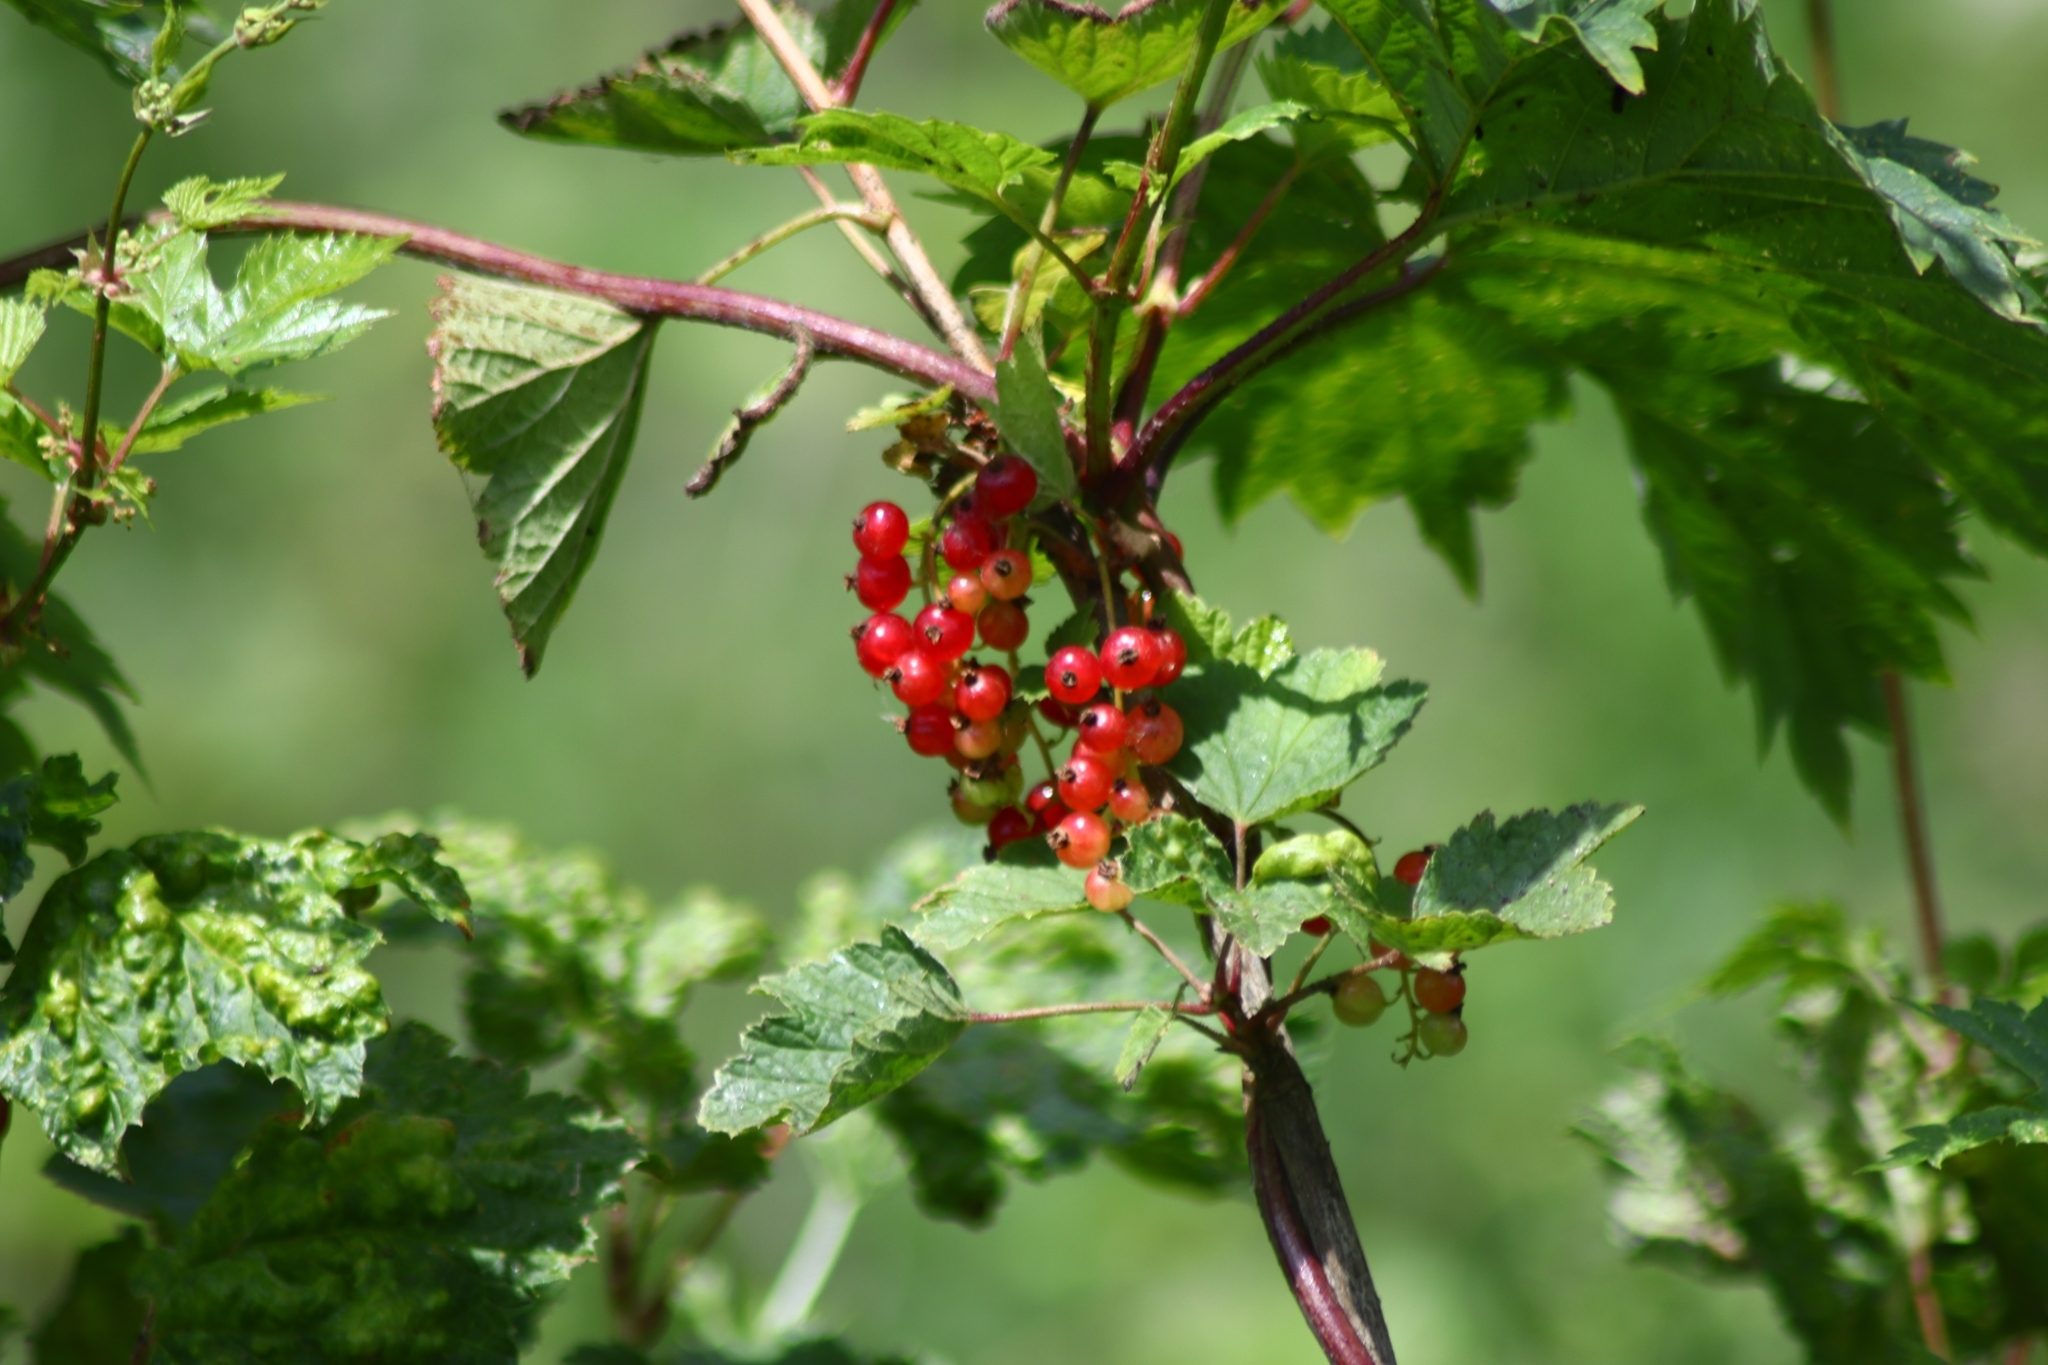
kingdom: Plantae
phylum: Tracheophyta
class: Magnoliopsida
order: Saxifragales
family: Grossulariaceae
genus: Ribes
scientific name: Ribes rubrum
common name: Red currant
